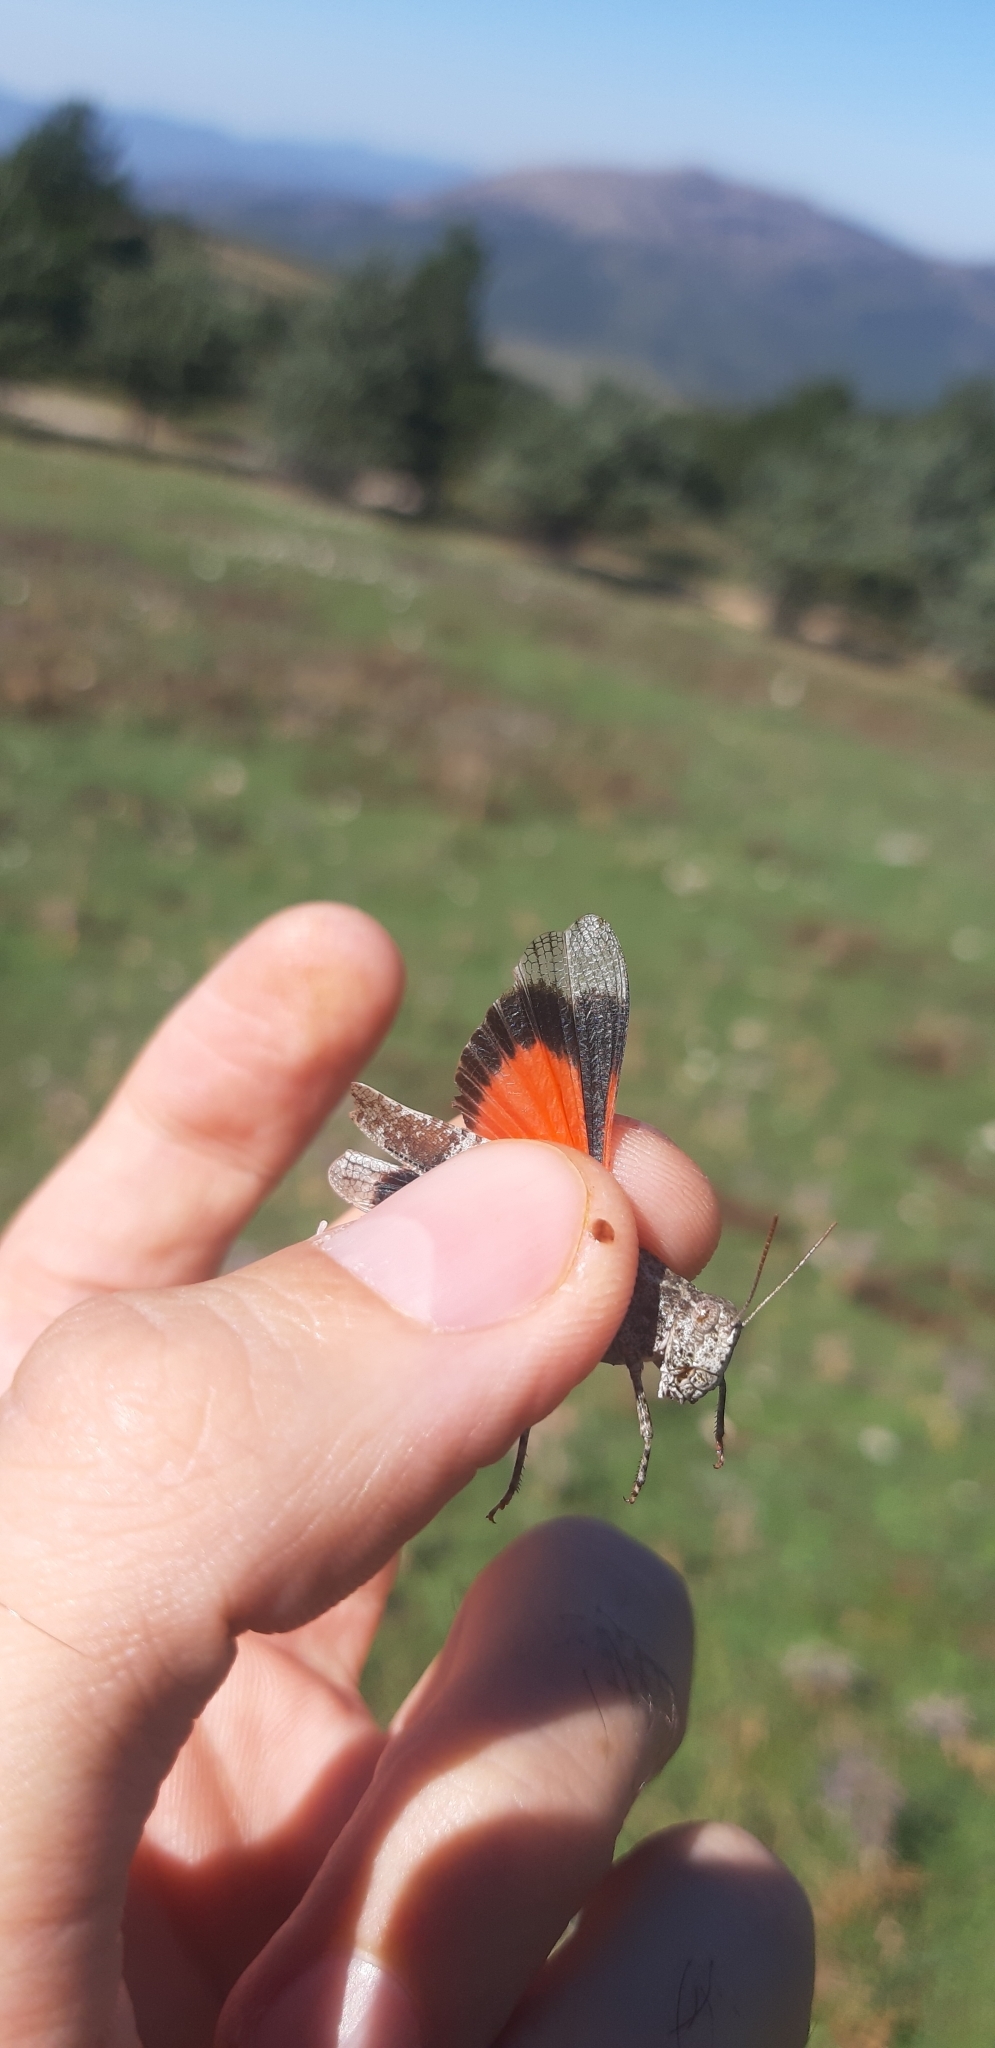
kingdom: Animalia
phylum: Arthropoda
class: Insecta
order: Orthoptera
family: Acrididae
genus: Oedipoda
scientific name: Oedipoda germanica
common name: Red band-winged grasshopper
